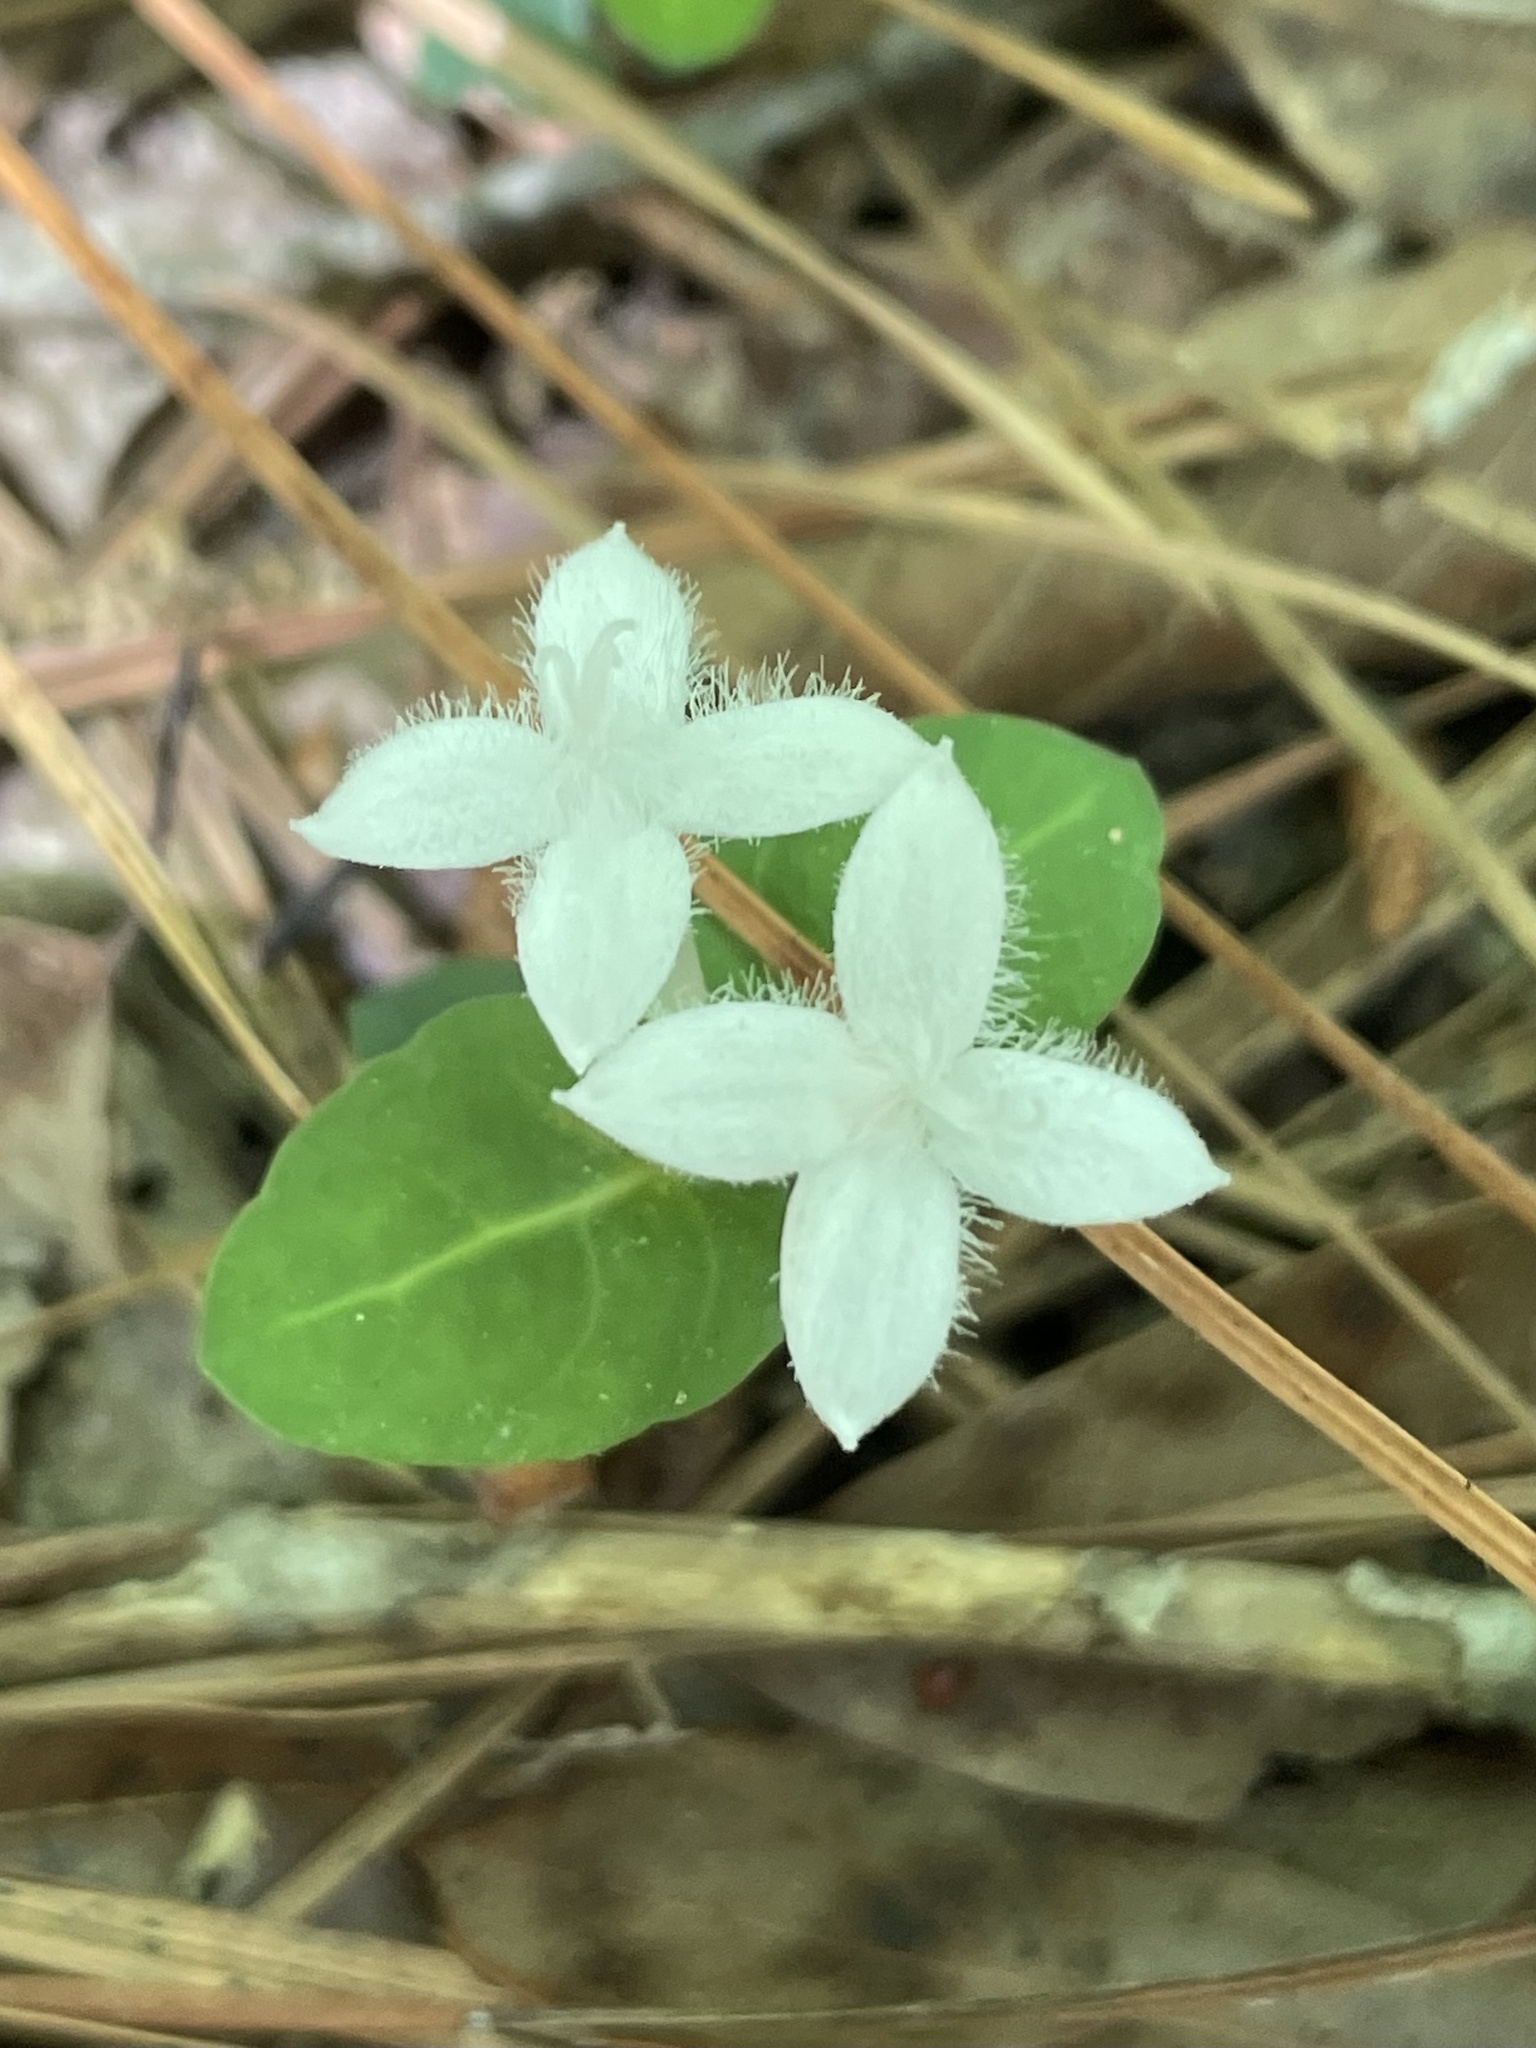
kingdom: Plantae
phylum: Tracheophyta
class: Magnoliopsida
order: Gentianales
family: Rubiaceae
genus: Mitchella
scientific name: Mitchella repens
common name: Partridge-berry
